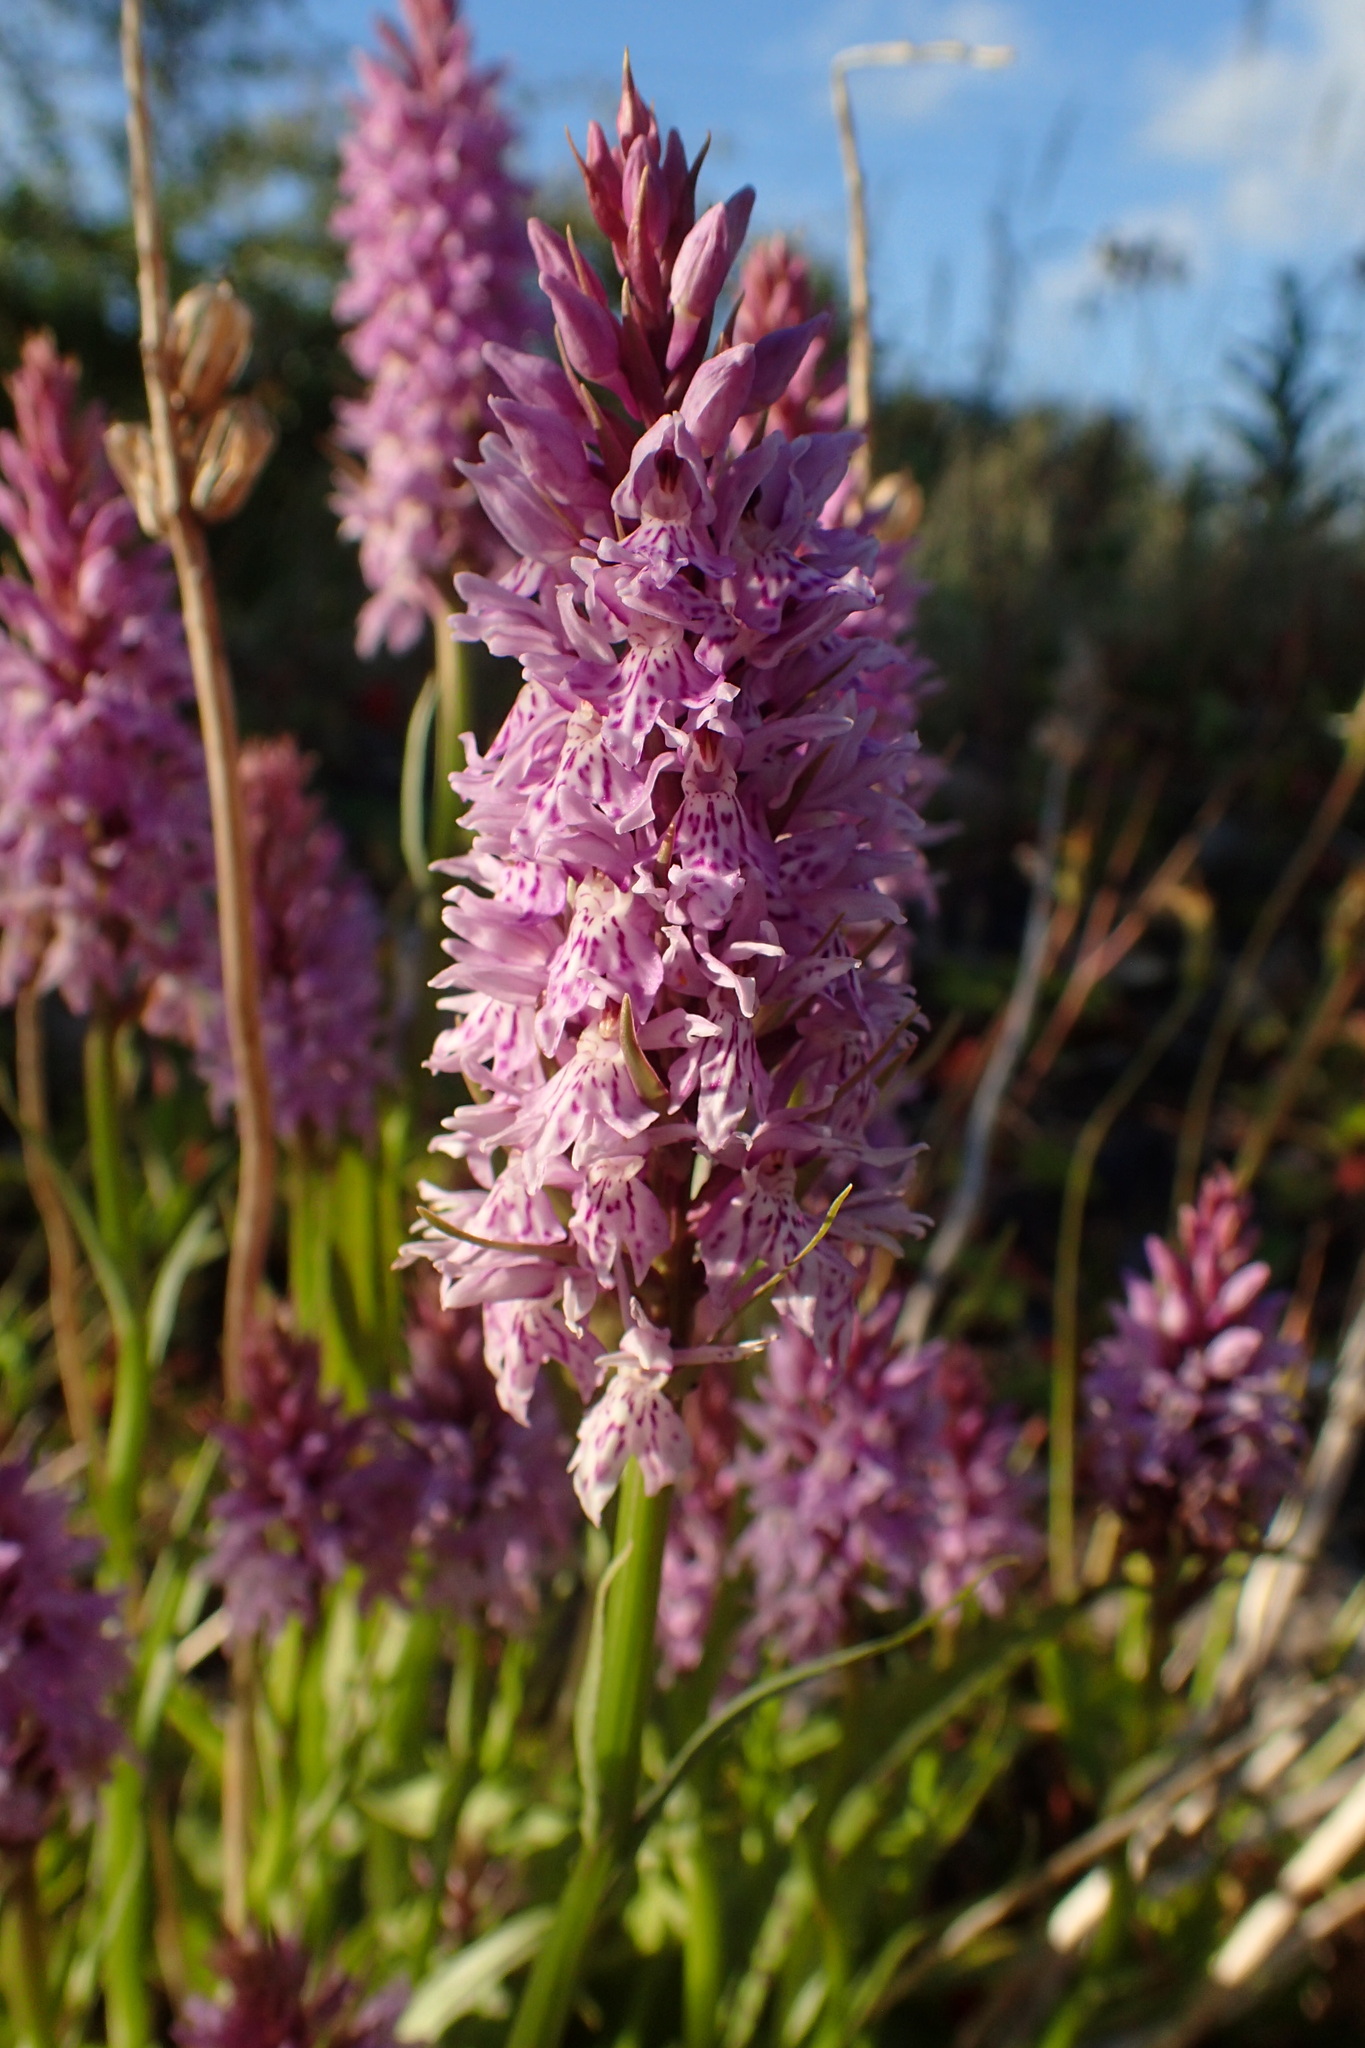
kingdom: Plantae
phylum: Tracheophyta
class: Liliopsida
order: Asparagales
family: Orchidaceae
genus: Dactylorhiza
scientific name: Dactylorhiza maculata
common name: Heath spotted-orchid
